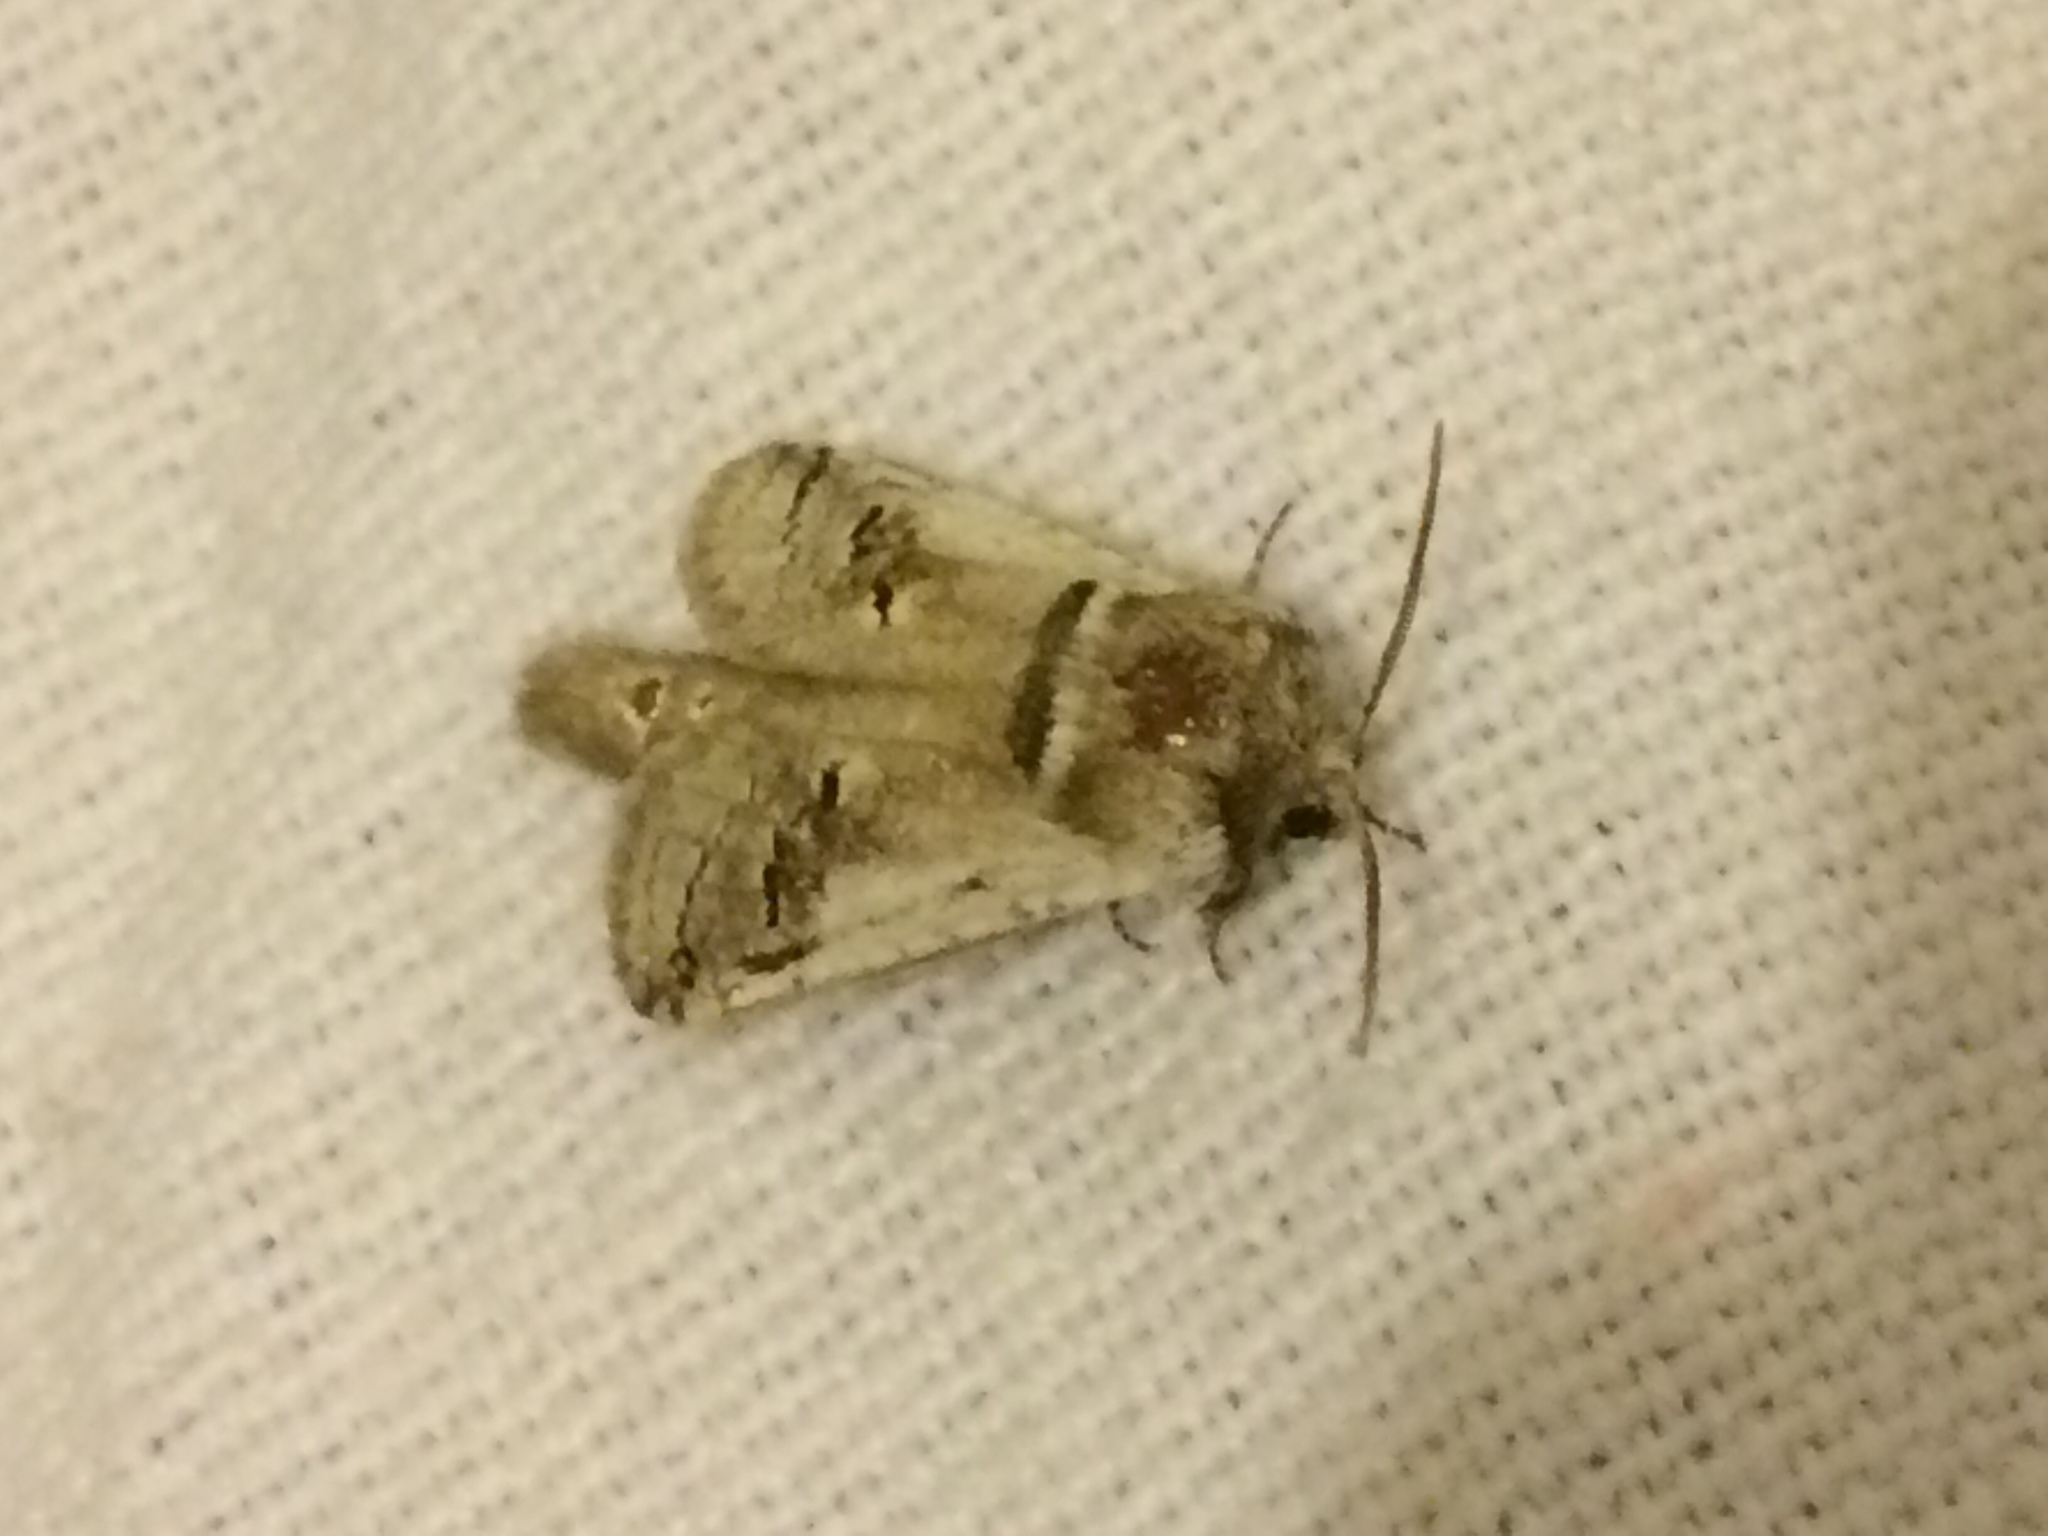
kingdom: Animalia
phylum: Arthropoda
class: Insecta
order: Lepidoptera
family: Cossidae
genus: Parahypopta
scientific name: Parahypopta caestrum
